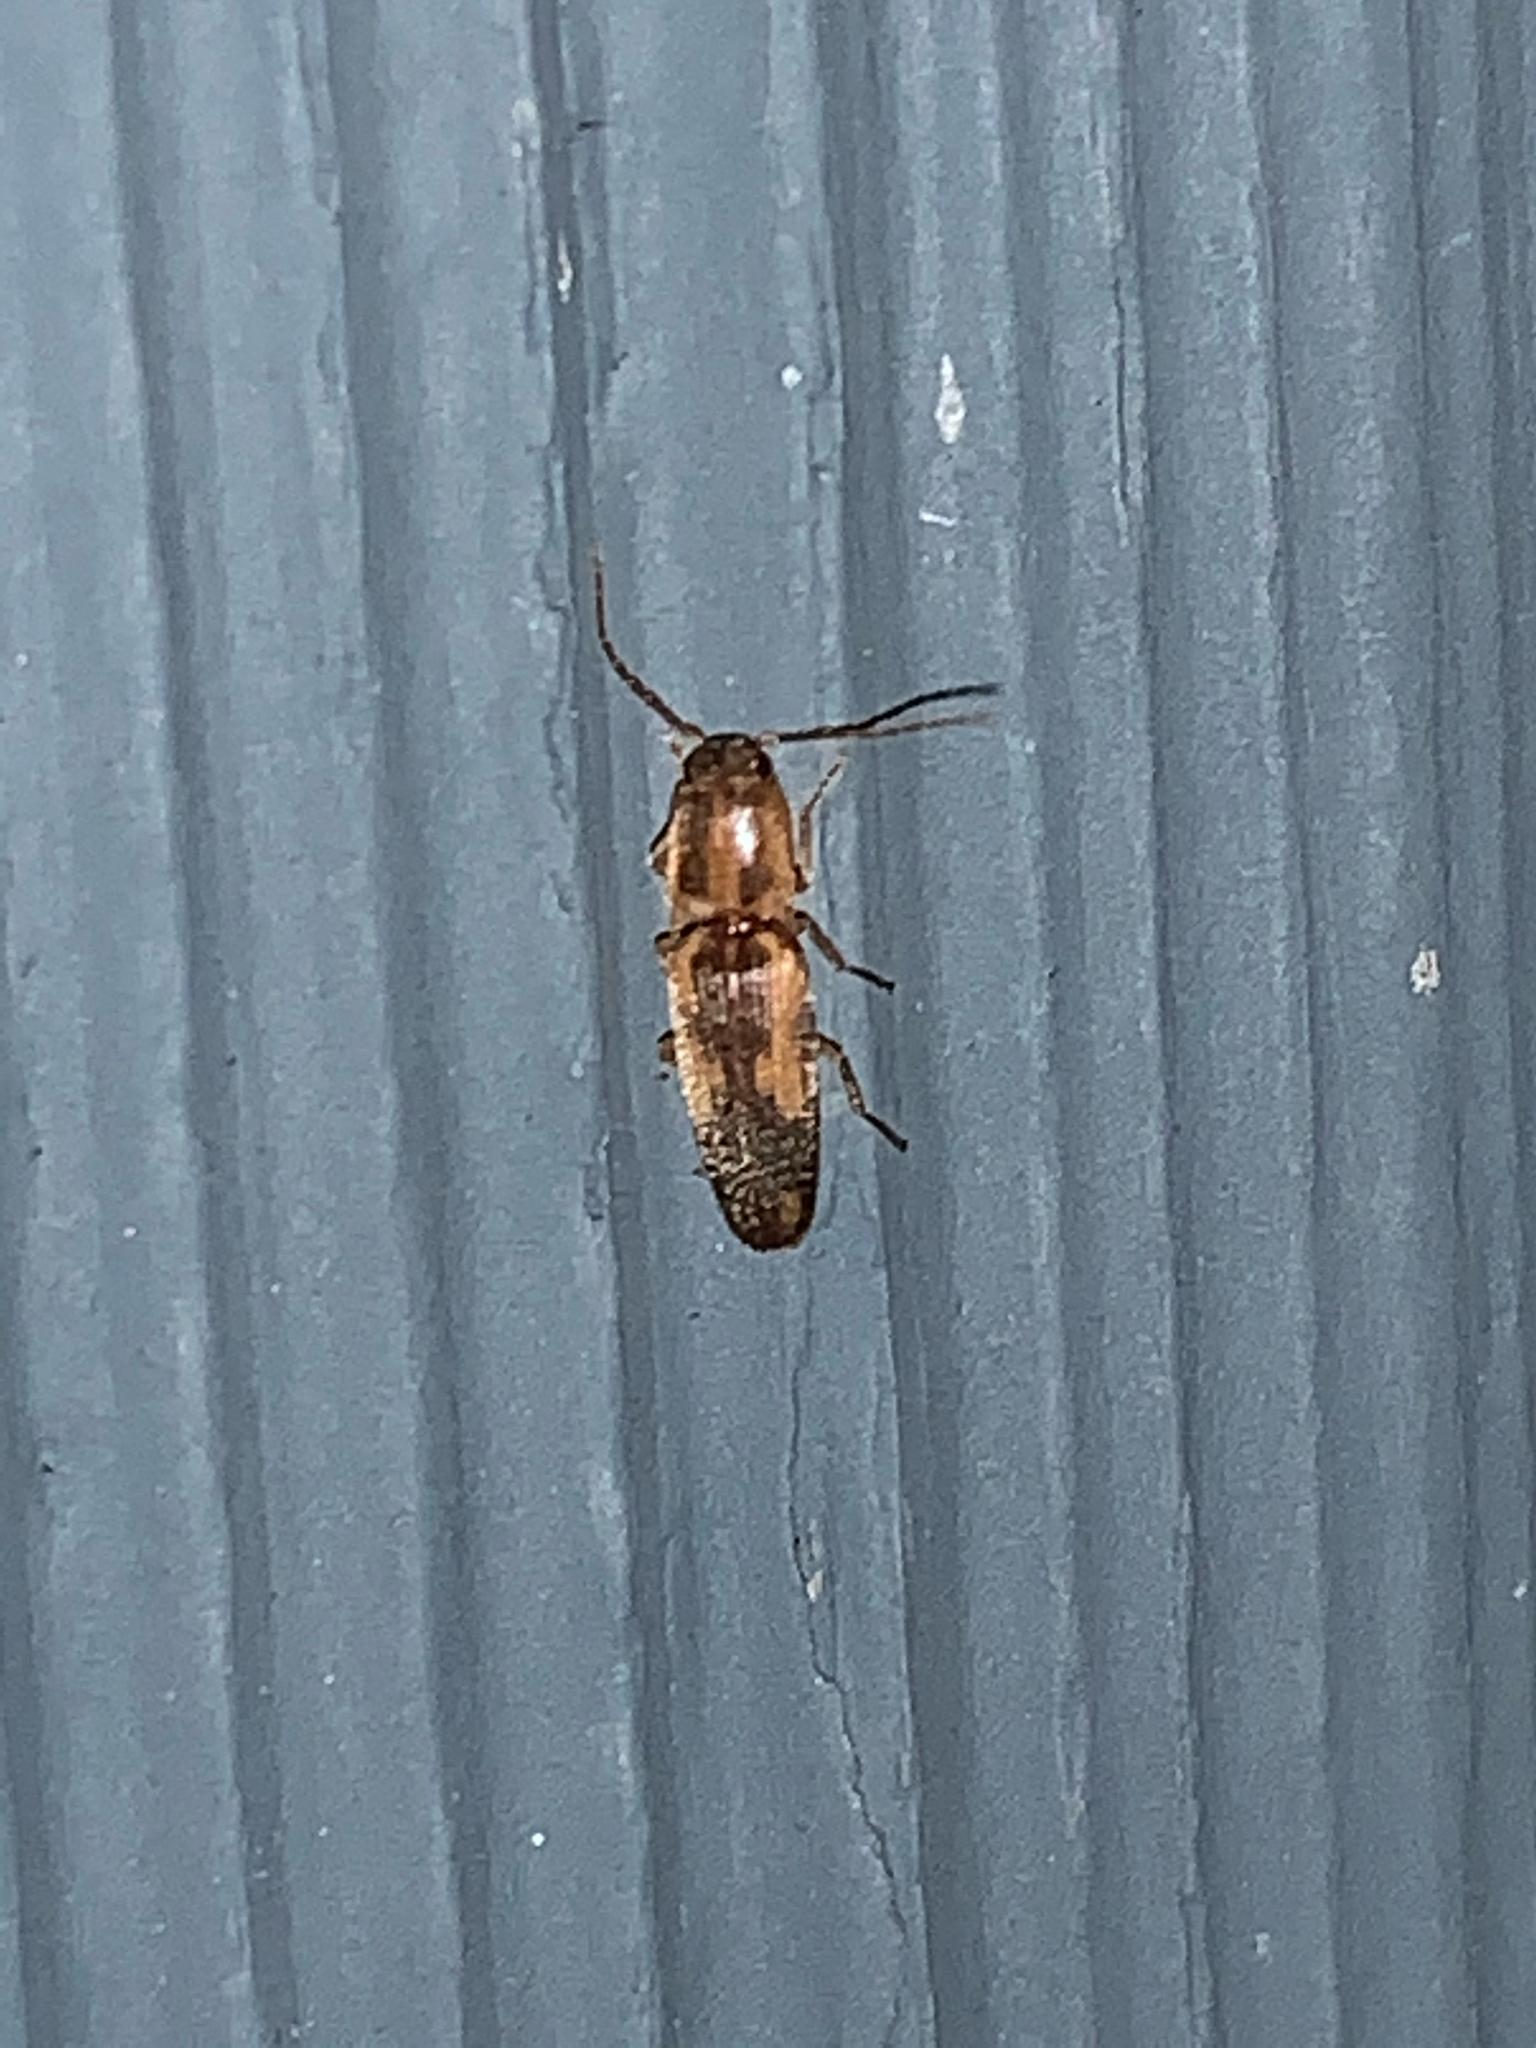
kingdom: Animalia
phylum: Arthropoda
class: Insecta
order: Coleoptera
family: Elateridae
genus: Monocrepidius
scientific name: Monocrepidius
